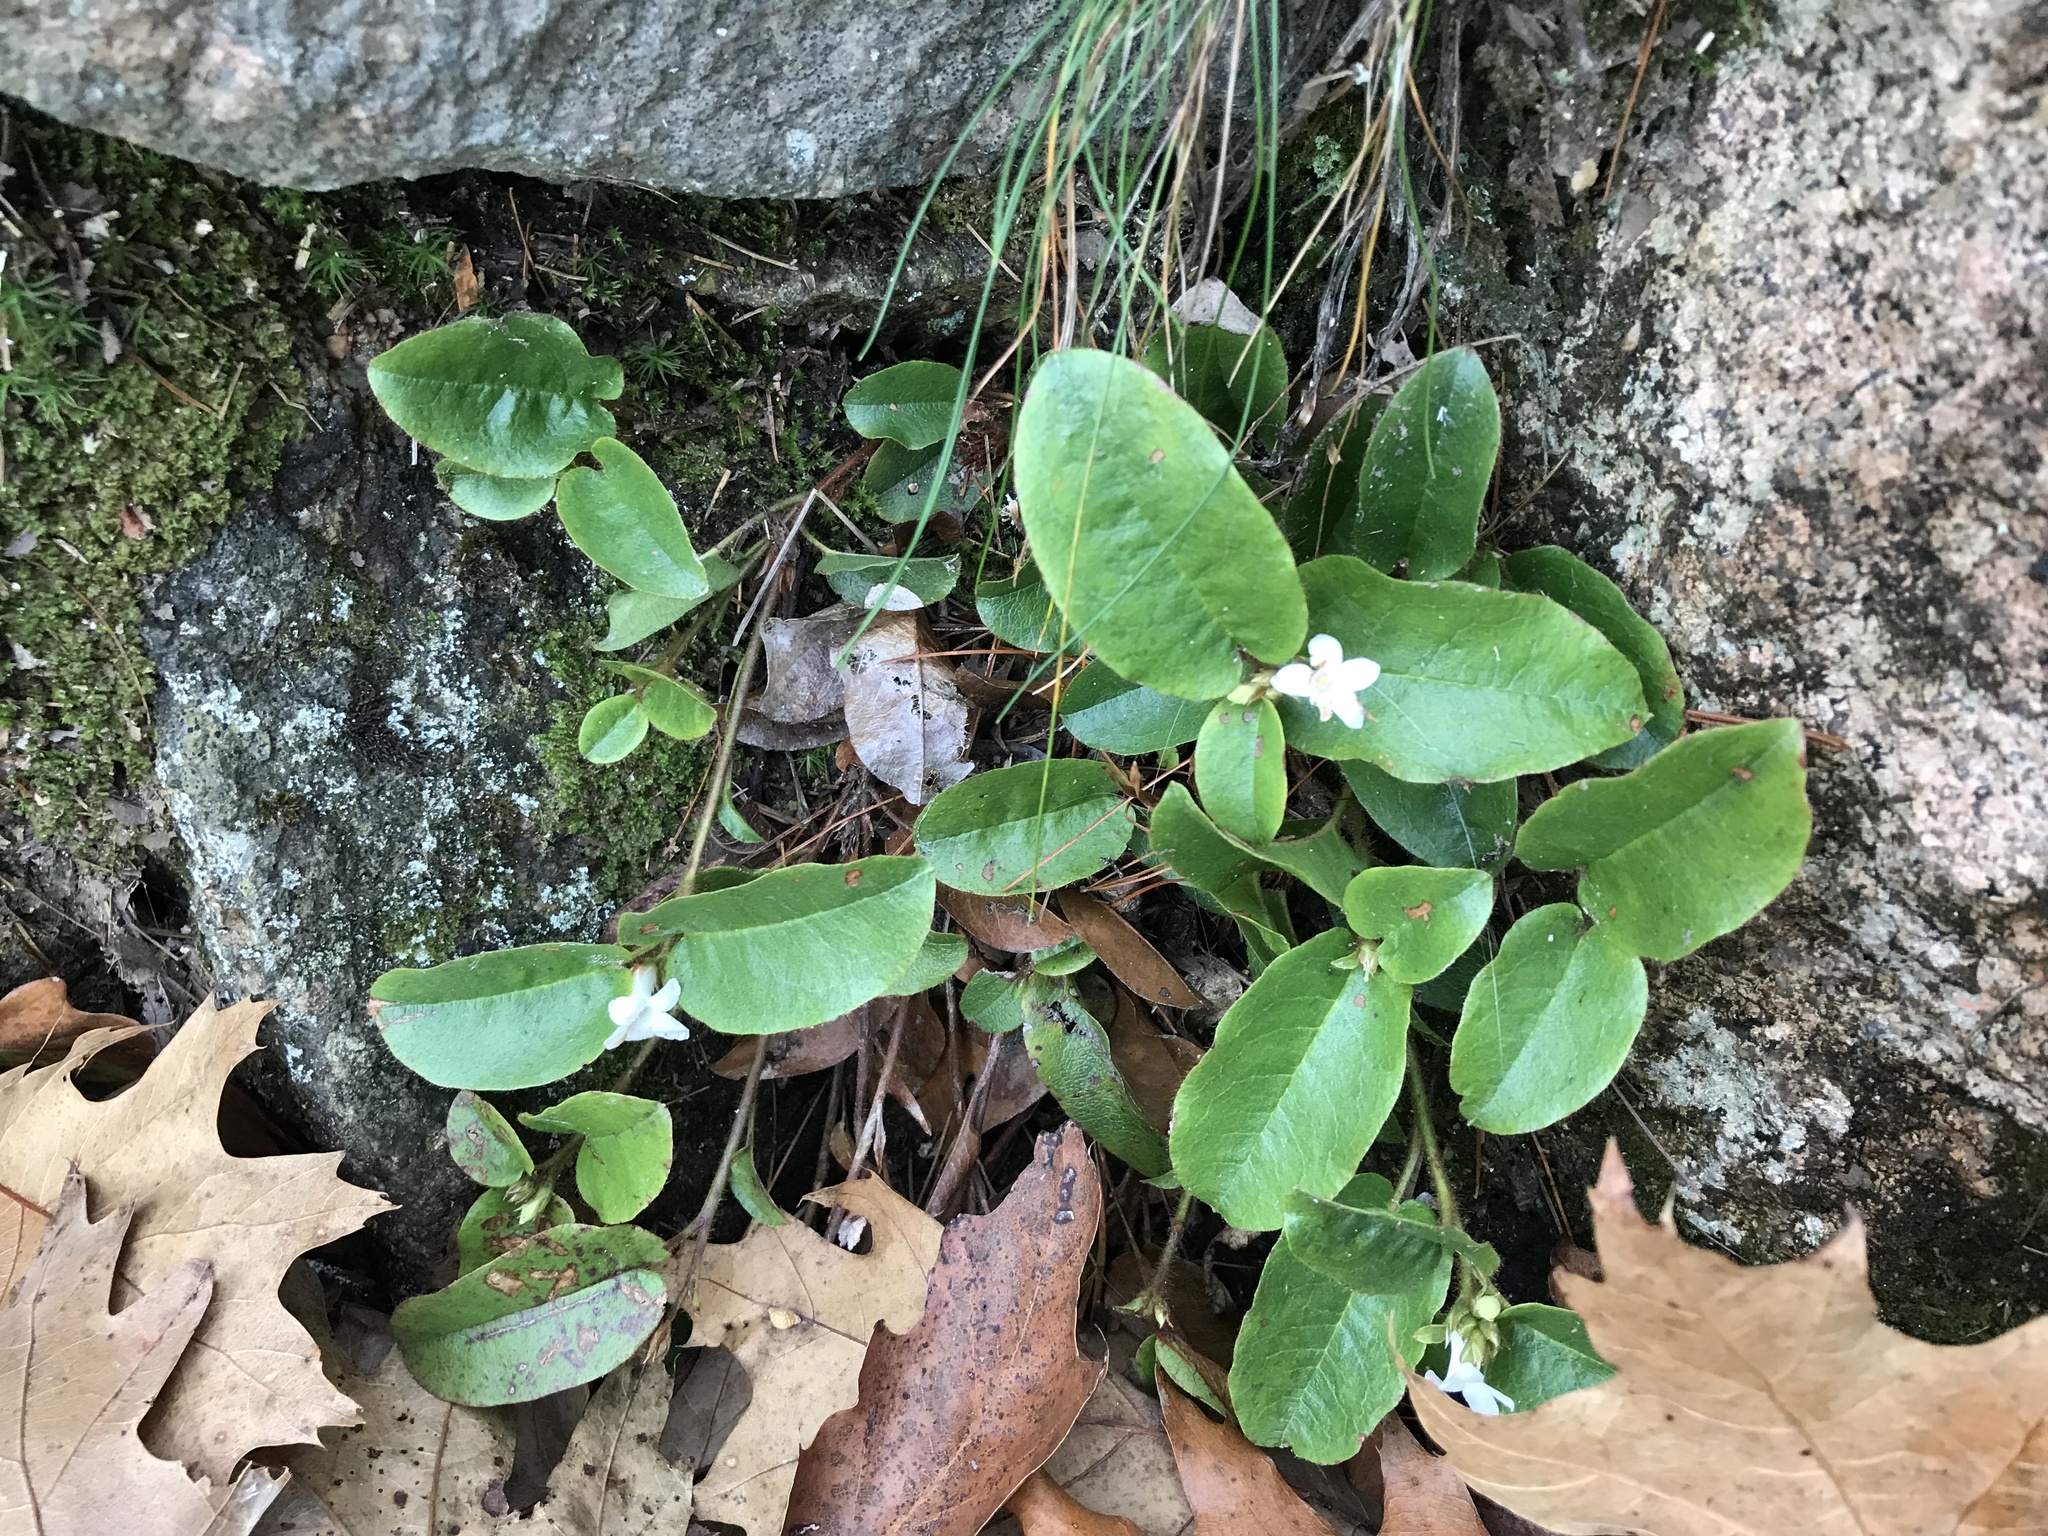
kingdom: Plantae
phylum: Tracheophyta
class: Magnoliopsida
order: Ericales
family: Ericaceae
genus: Epigaea
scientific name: Epigaea repens
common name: Gravelroot
